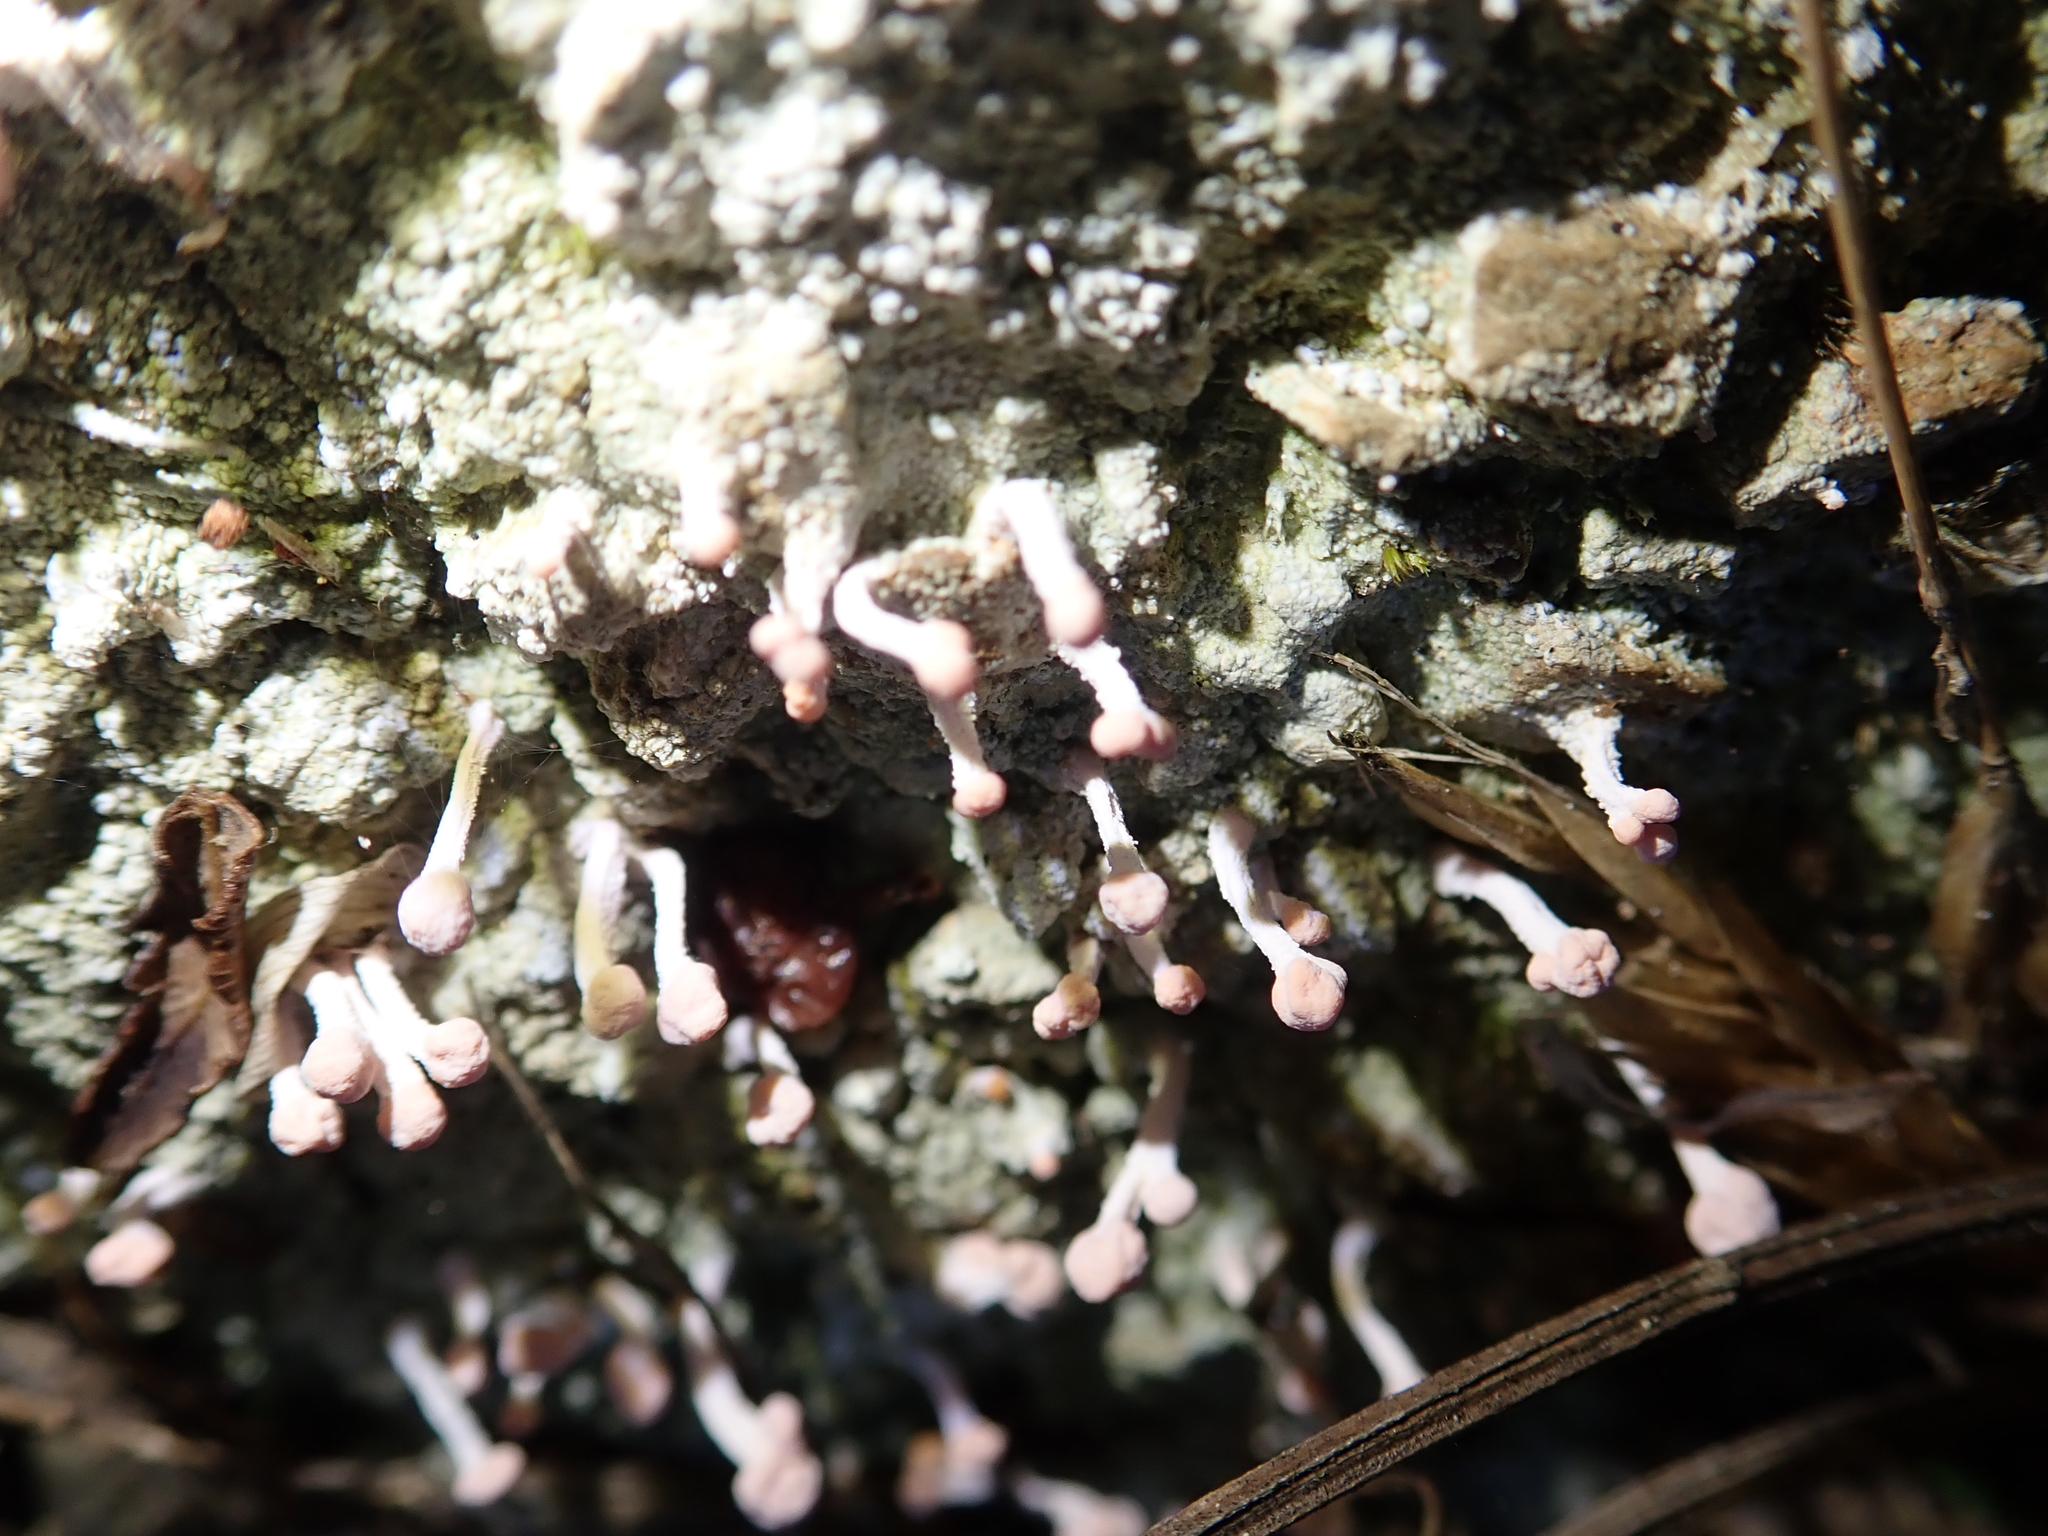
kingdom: Fungi
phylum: Ascomycota
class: Lecanoromycetes
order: Pertusariales
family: Icmadophilaceae
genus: Dibaeis
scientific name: Dibaeis arcuata
